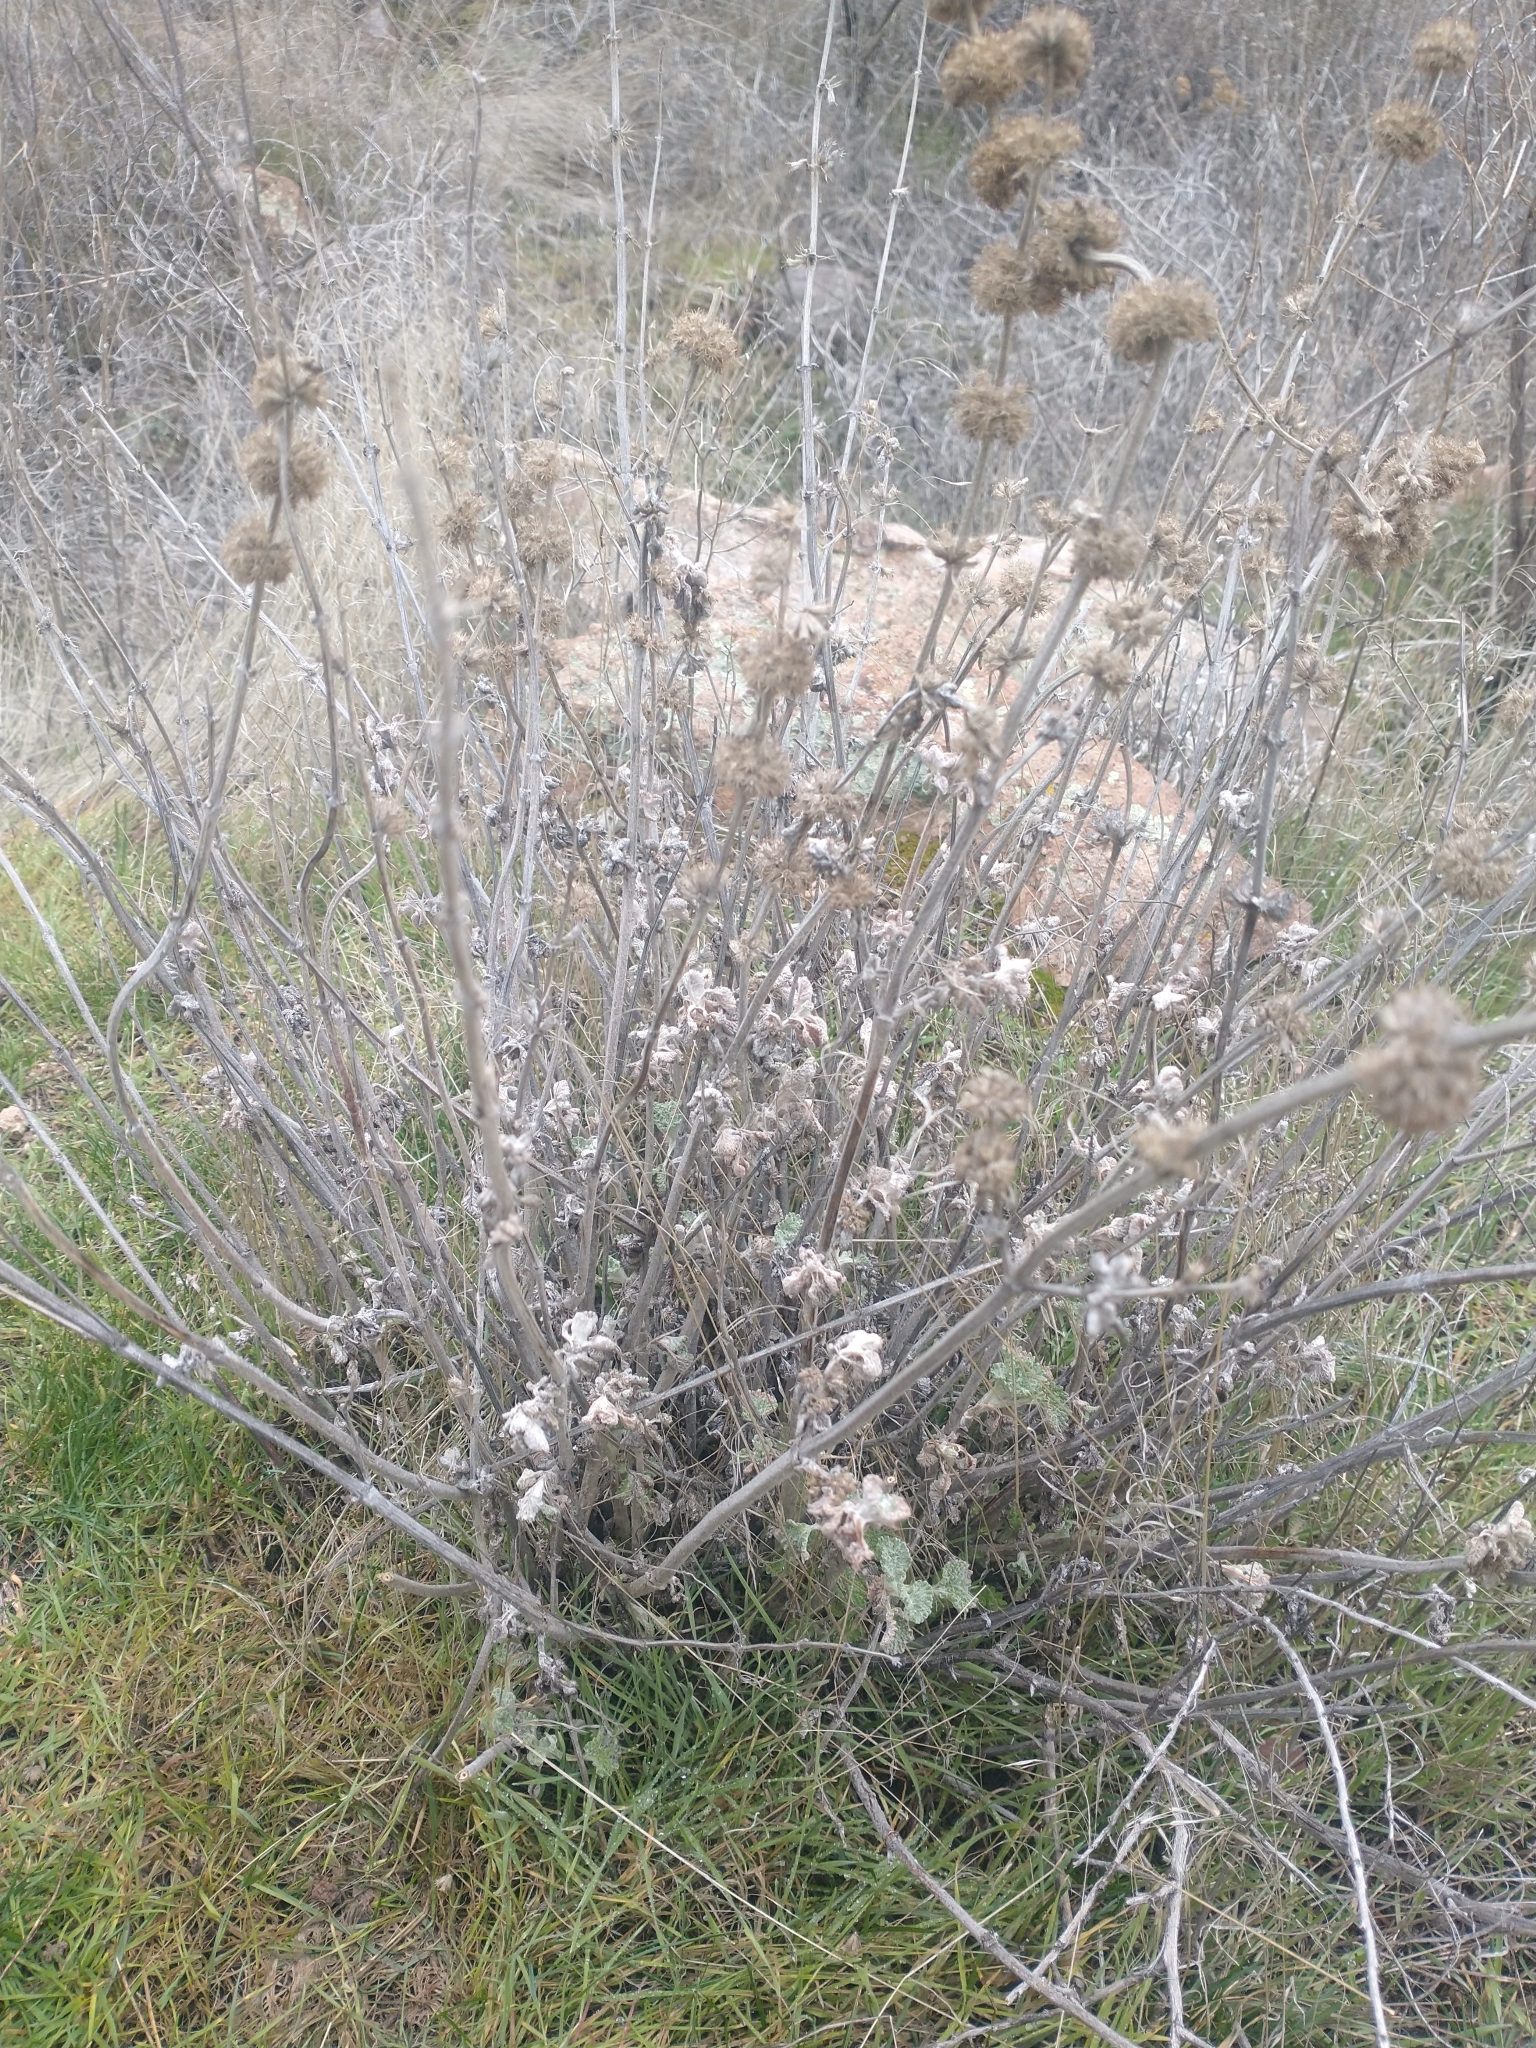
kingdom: Plantae
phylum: Tracheophyta
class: Magnoliopsida
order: Lamiales
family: Lamiaceae
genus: Marrubium
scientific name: Marrubium vulgare
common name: Horehound
